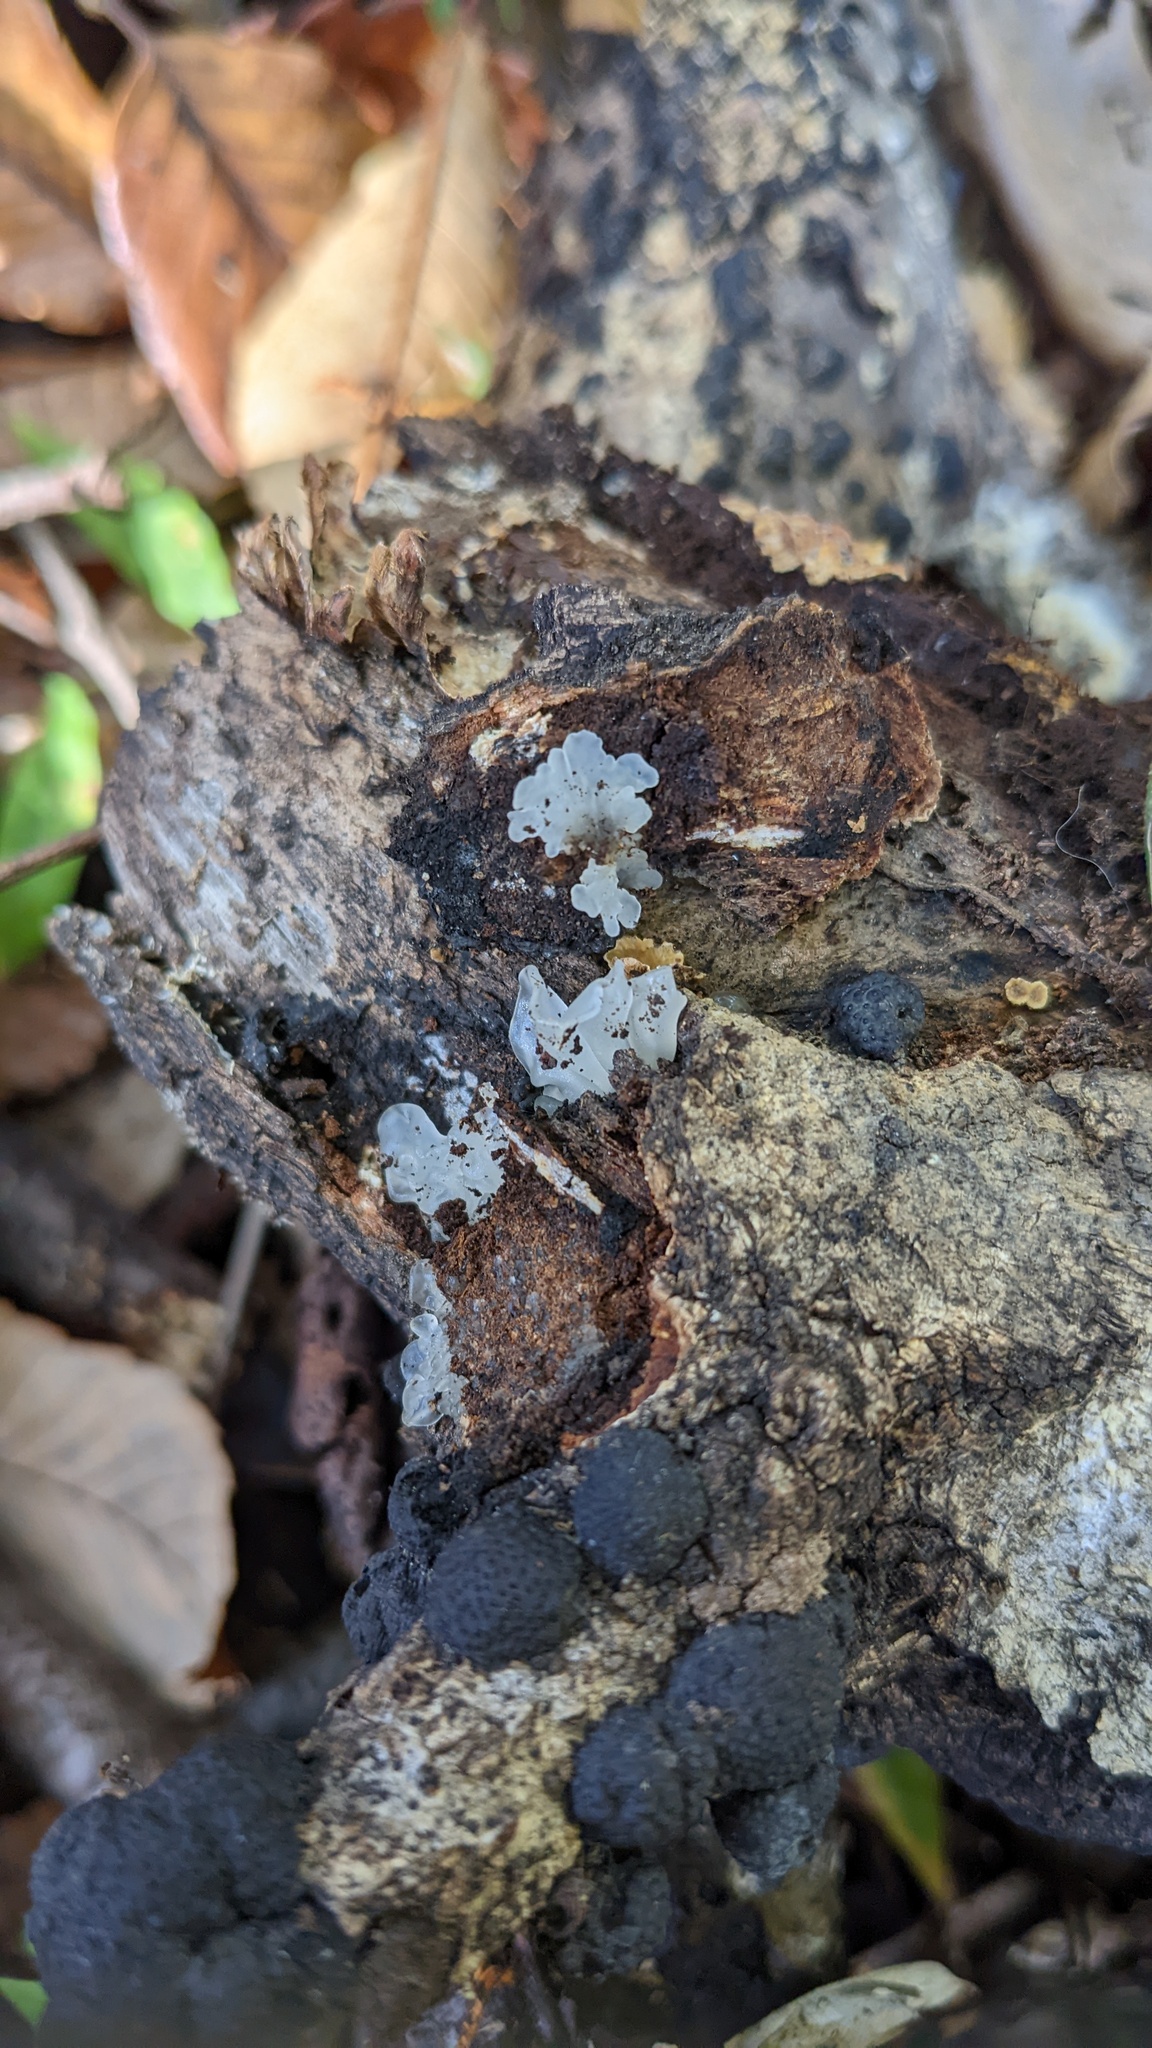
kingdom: Fungi
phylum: Basidiomycota
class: Tremellomycetes
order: Tremellales
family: Tremellaceae
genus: Tremella
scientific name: Tremella fuciformis
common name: Snow fungus
